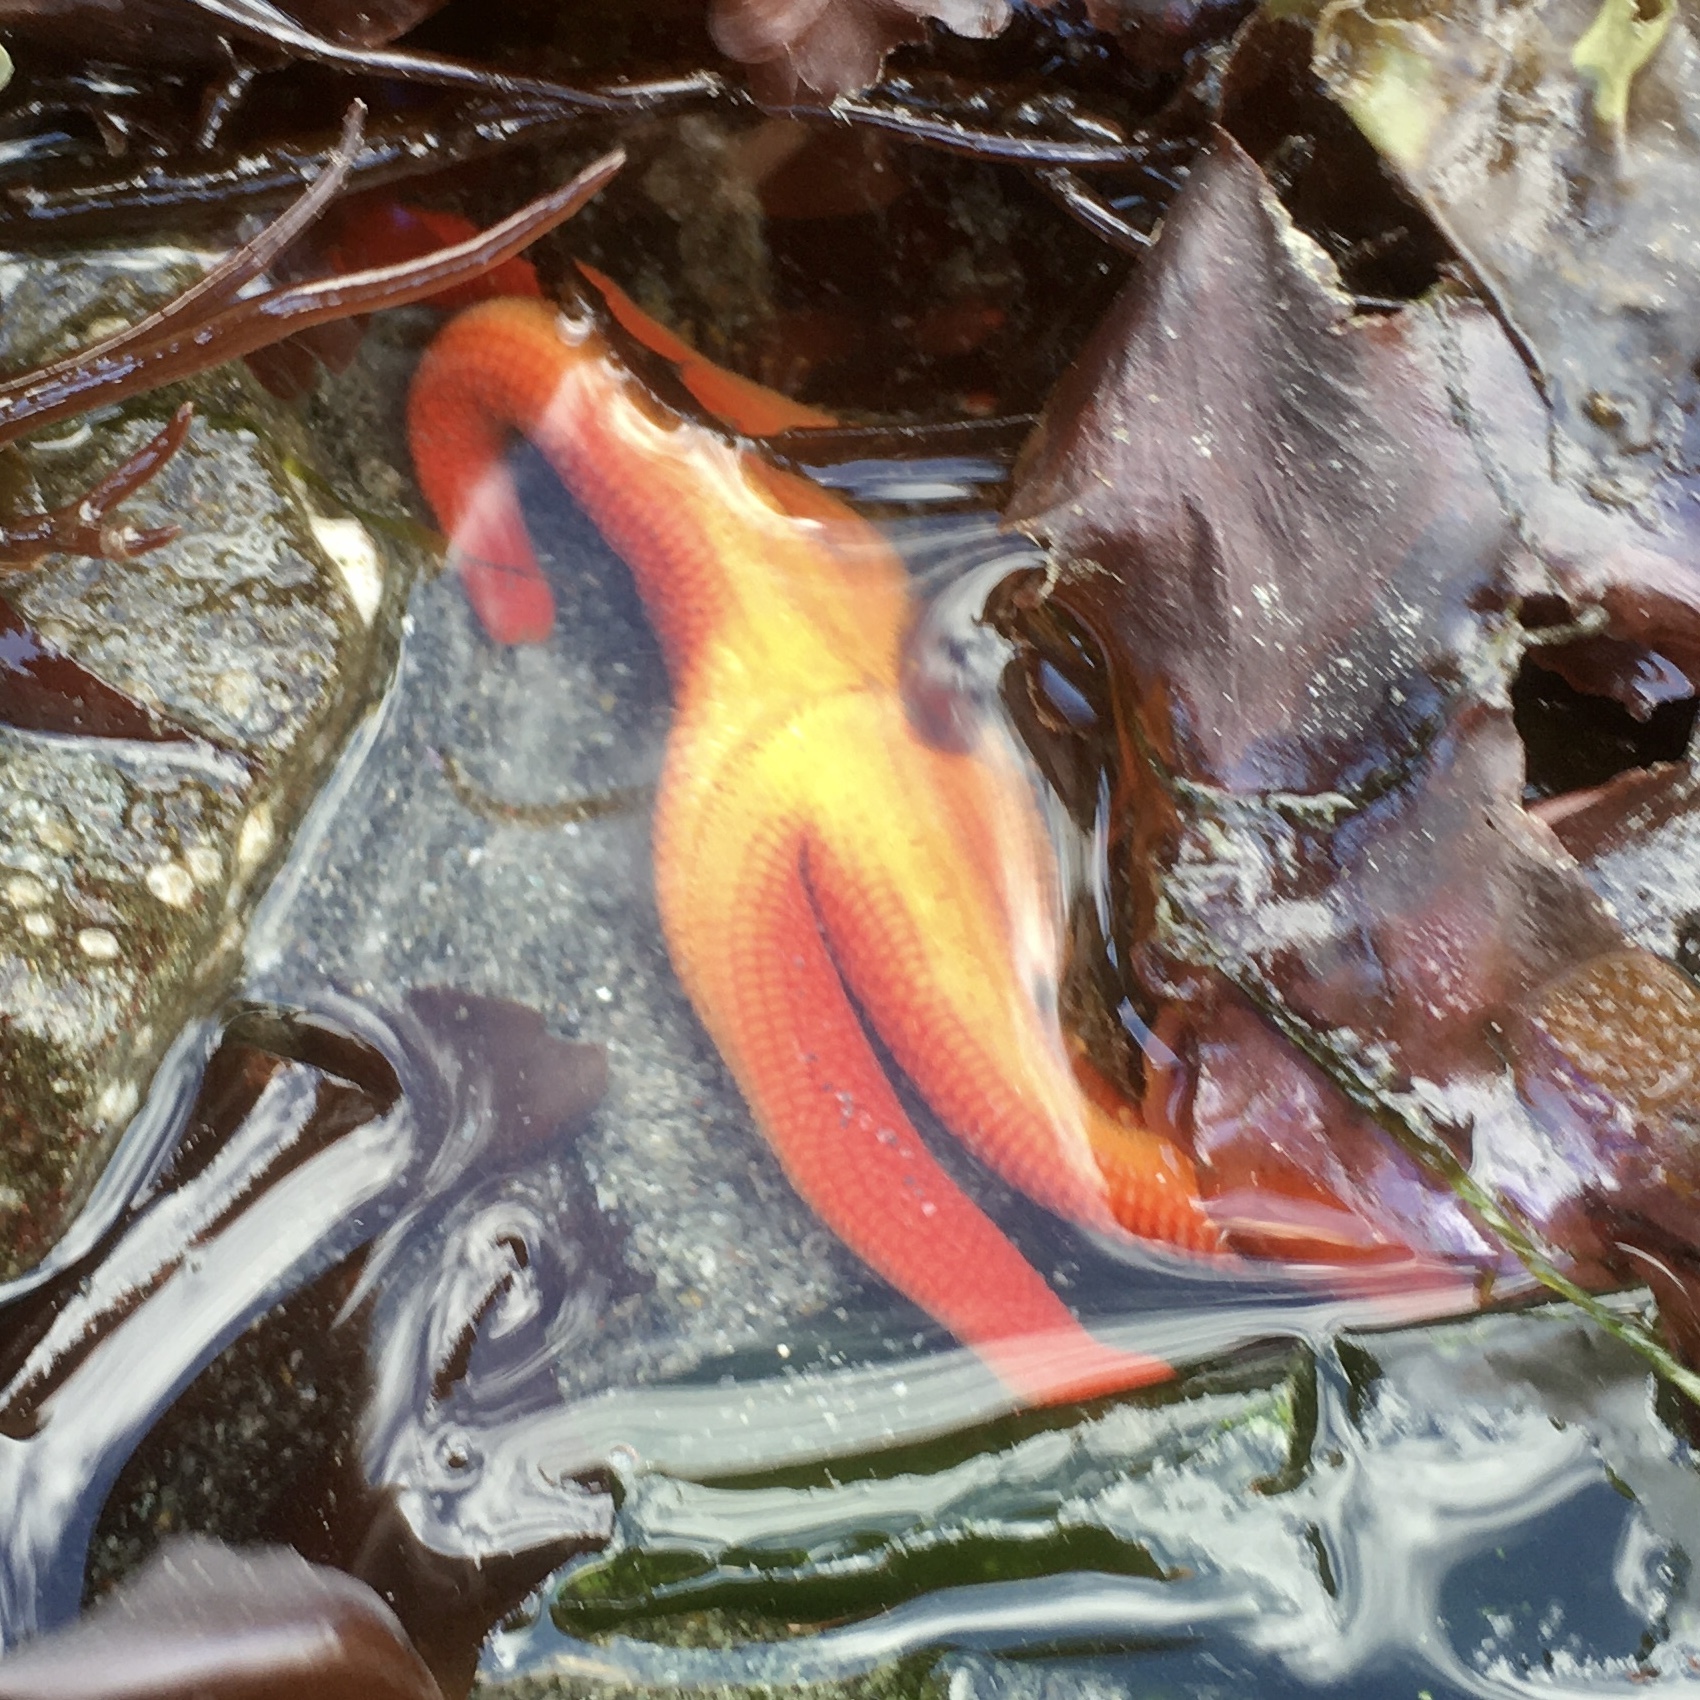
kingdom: Animalia
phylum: Echinodermata
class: Asteroidea
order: Spinulosida
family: Echinasteridae
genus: Henricia
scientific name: Henricia leviuscula
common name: Pacific blood star
